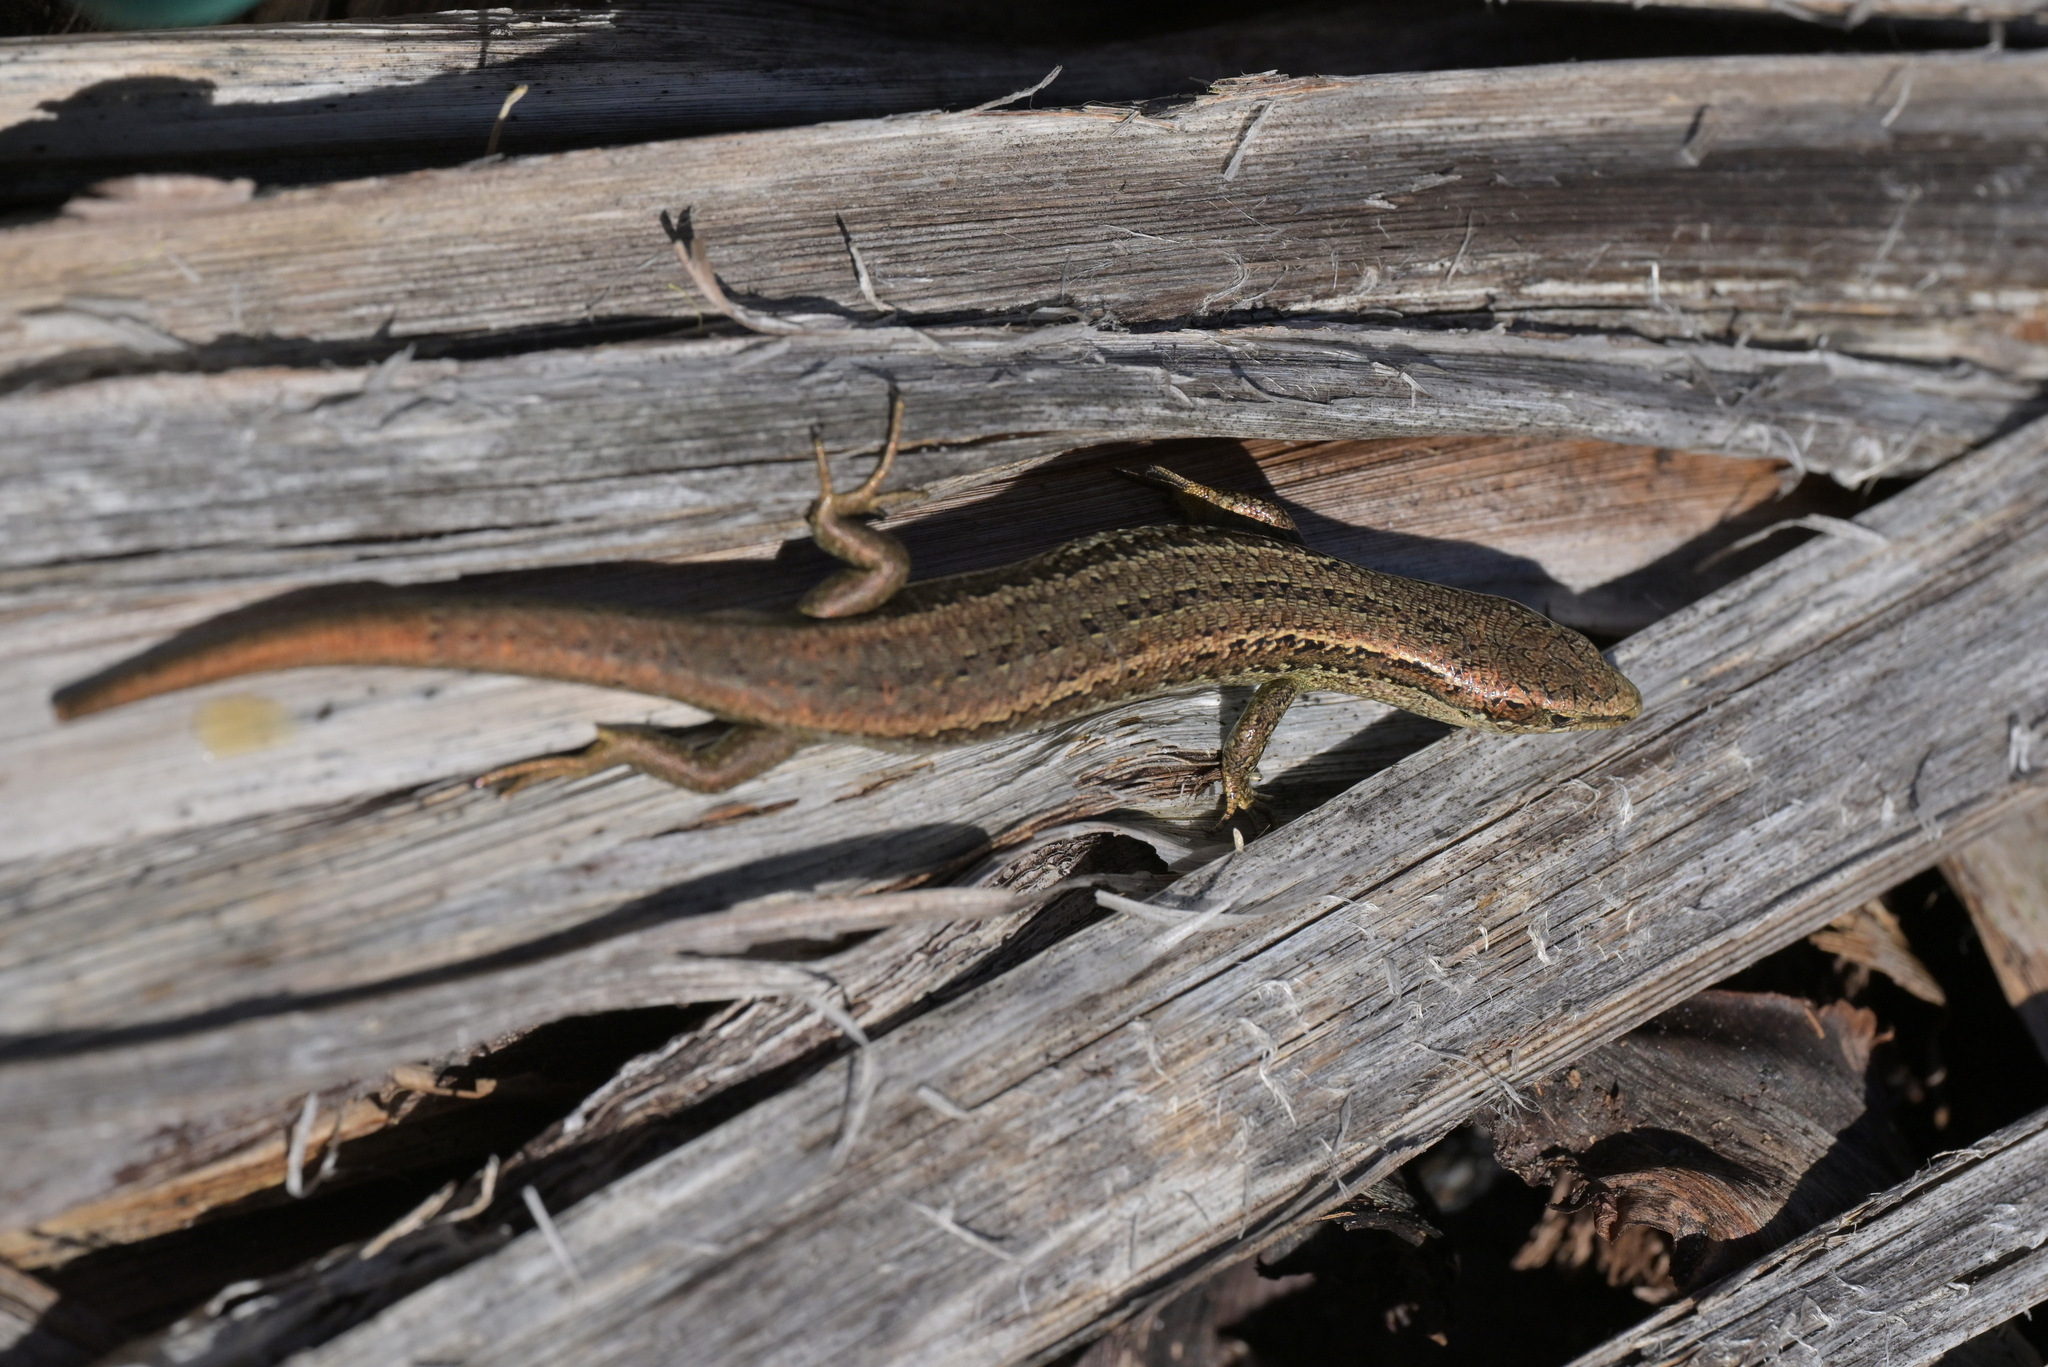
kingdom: Animalia
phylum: Chordata
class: Squamata
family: Scincidae
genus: Oligosoma
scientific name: Oligosoma polychroma
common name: Common new zealand skink
